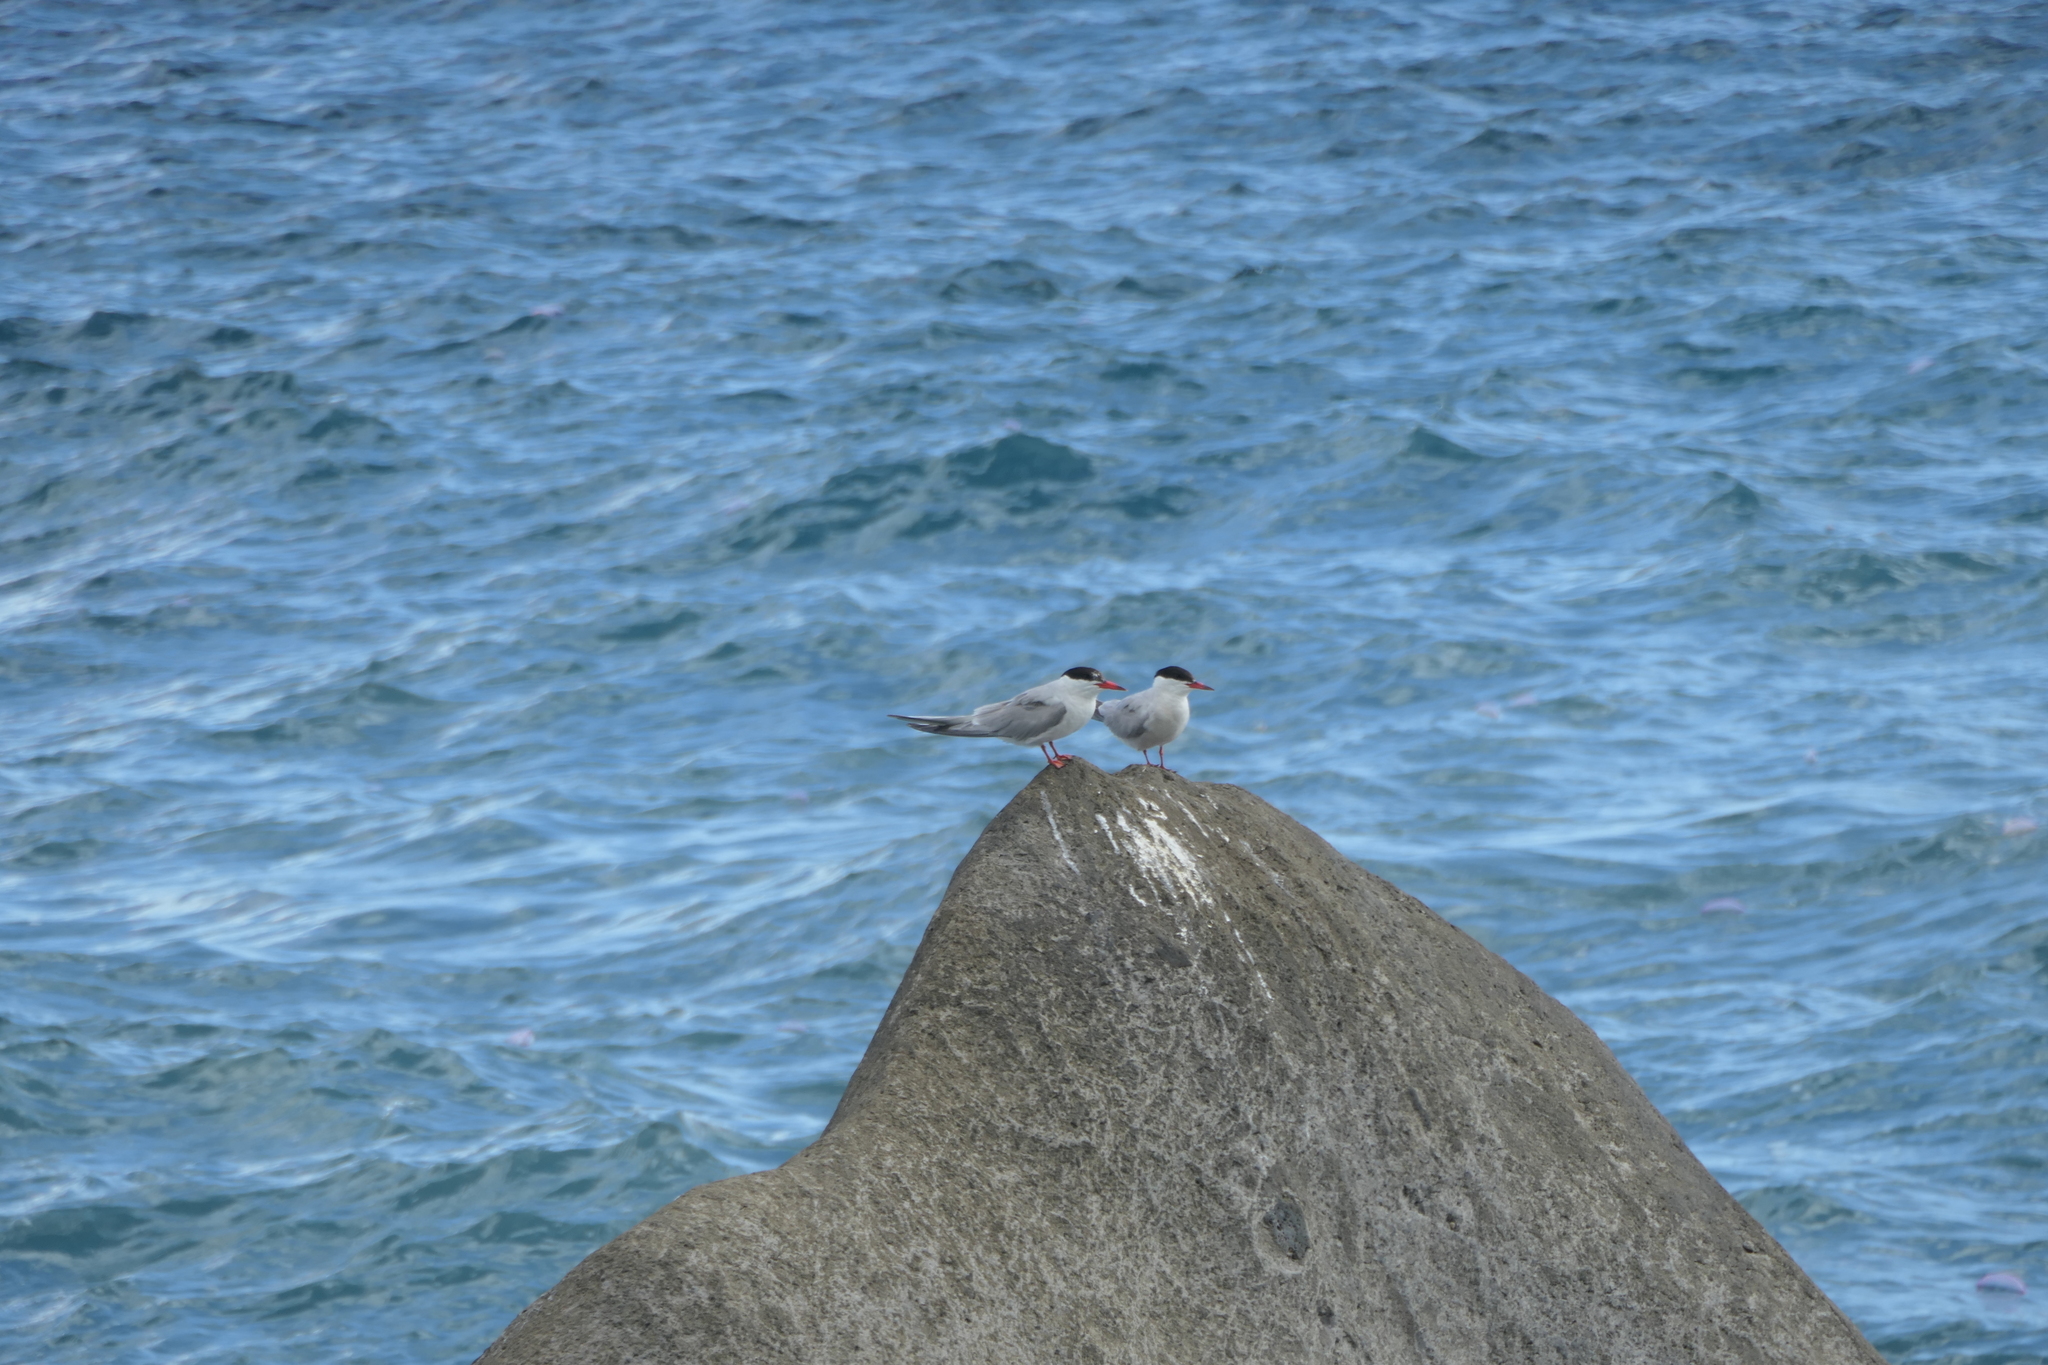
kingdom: Animalia
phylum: Chordata
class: Aves
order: Charadriiformes
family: Laridae
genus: Sterna
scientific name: Sterna hirundo
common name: Common tern
